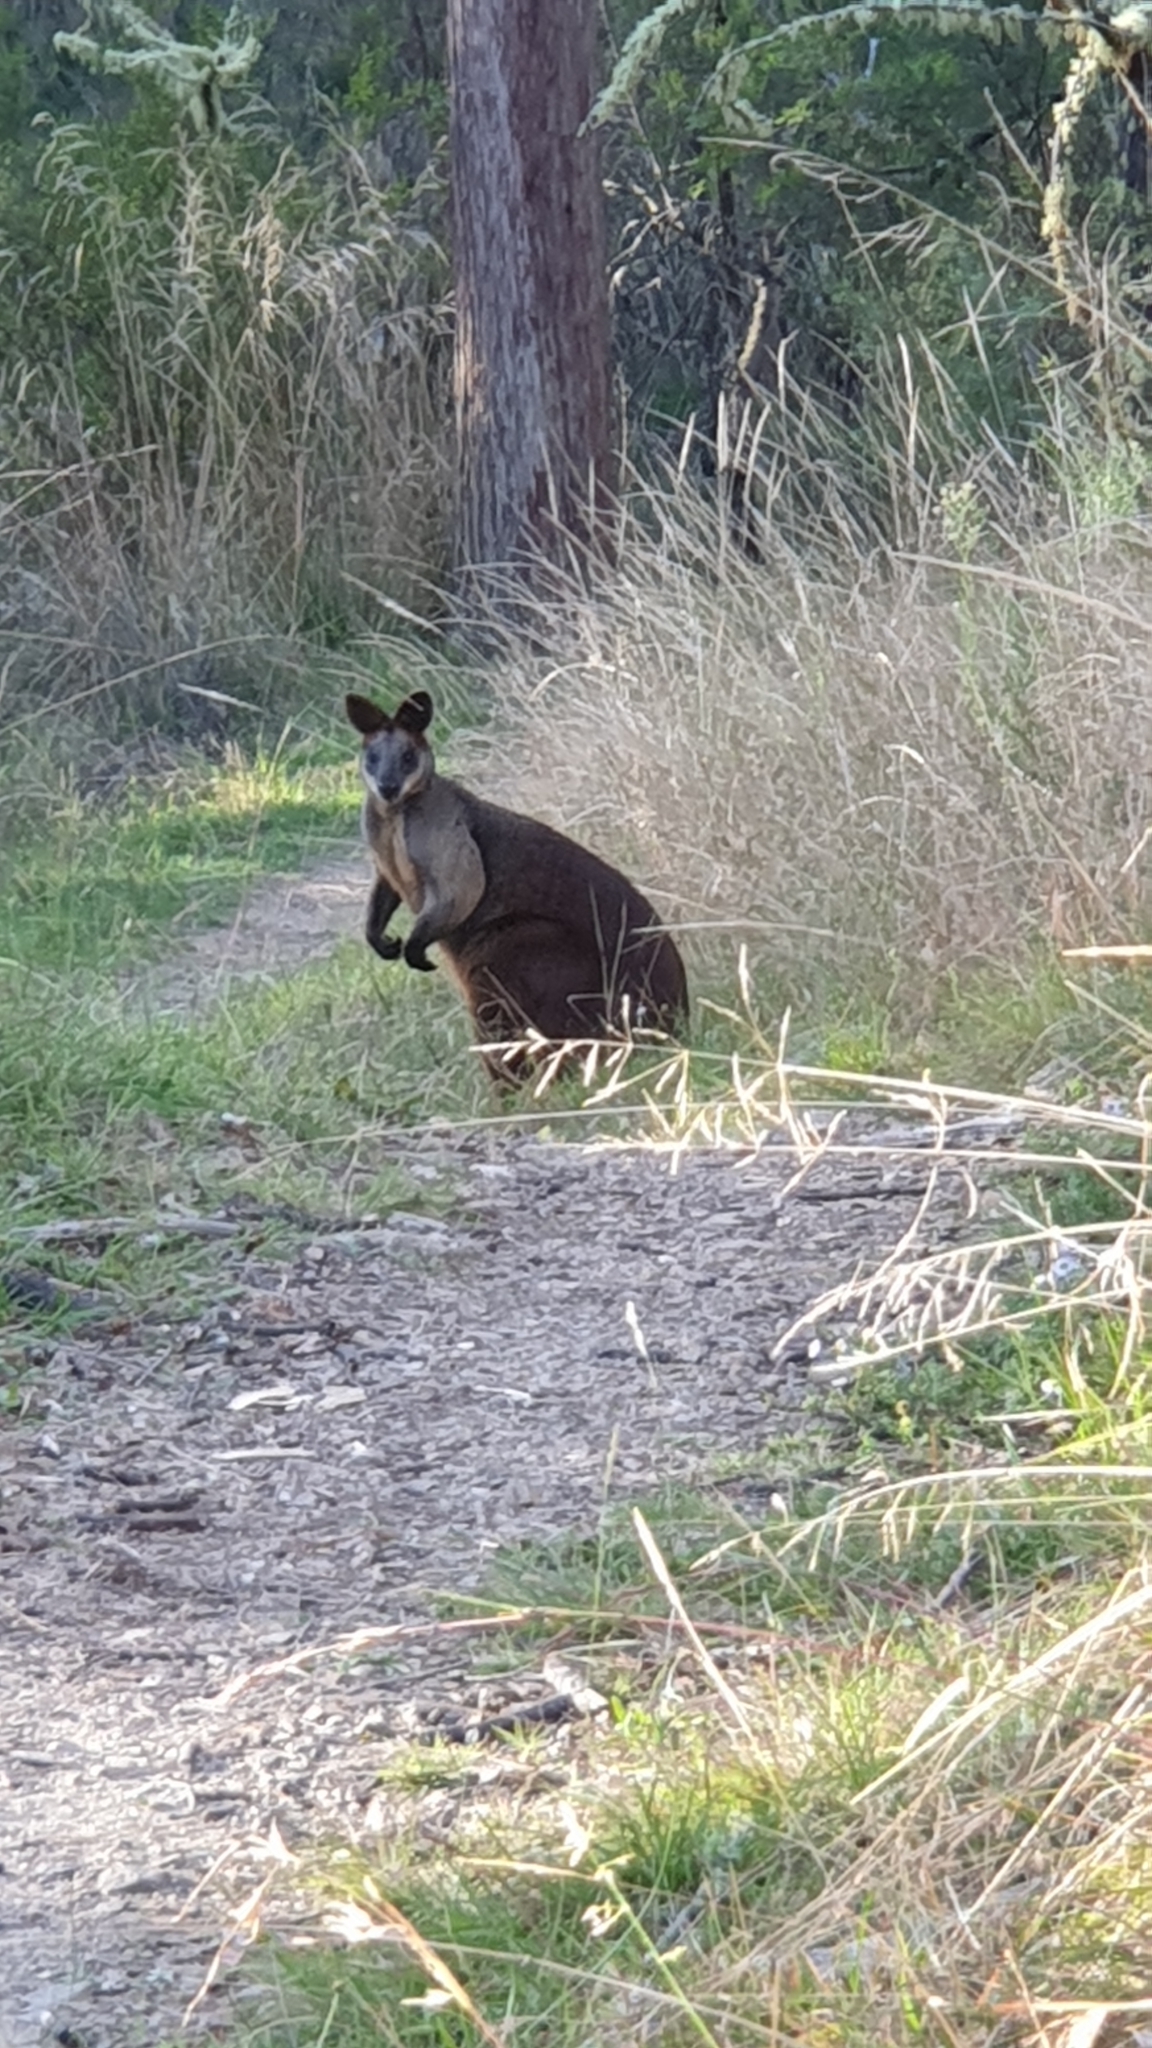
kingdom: Animalia
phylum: Chordata
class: Mammalia
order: Diprotodontia
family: Macropodidae
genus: Wallabia
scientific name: Wallabia bicolor
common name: Swamp wallaby
